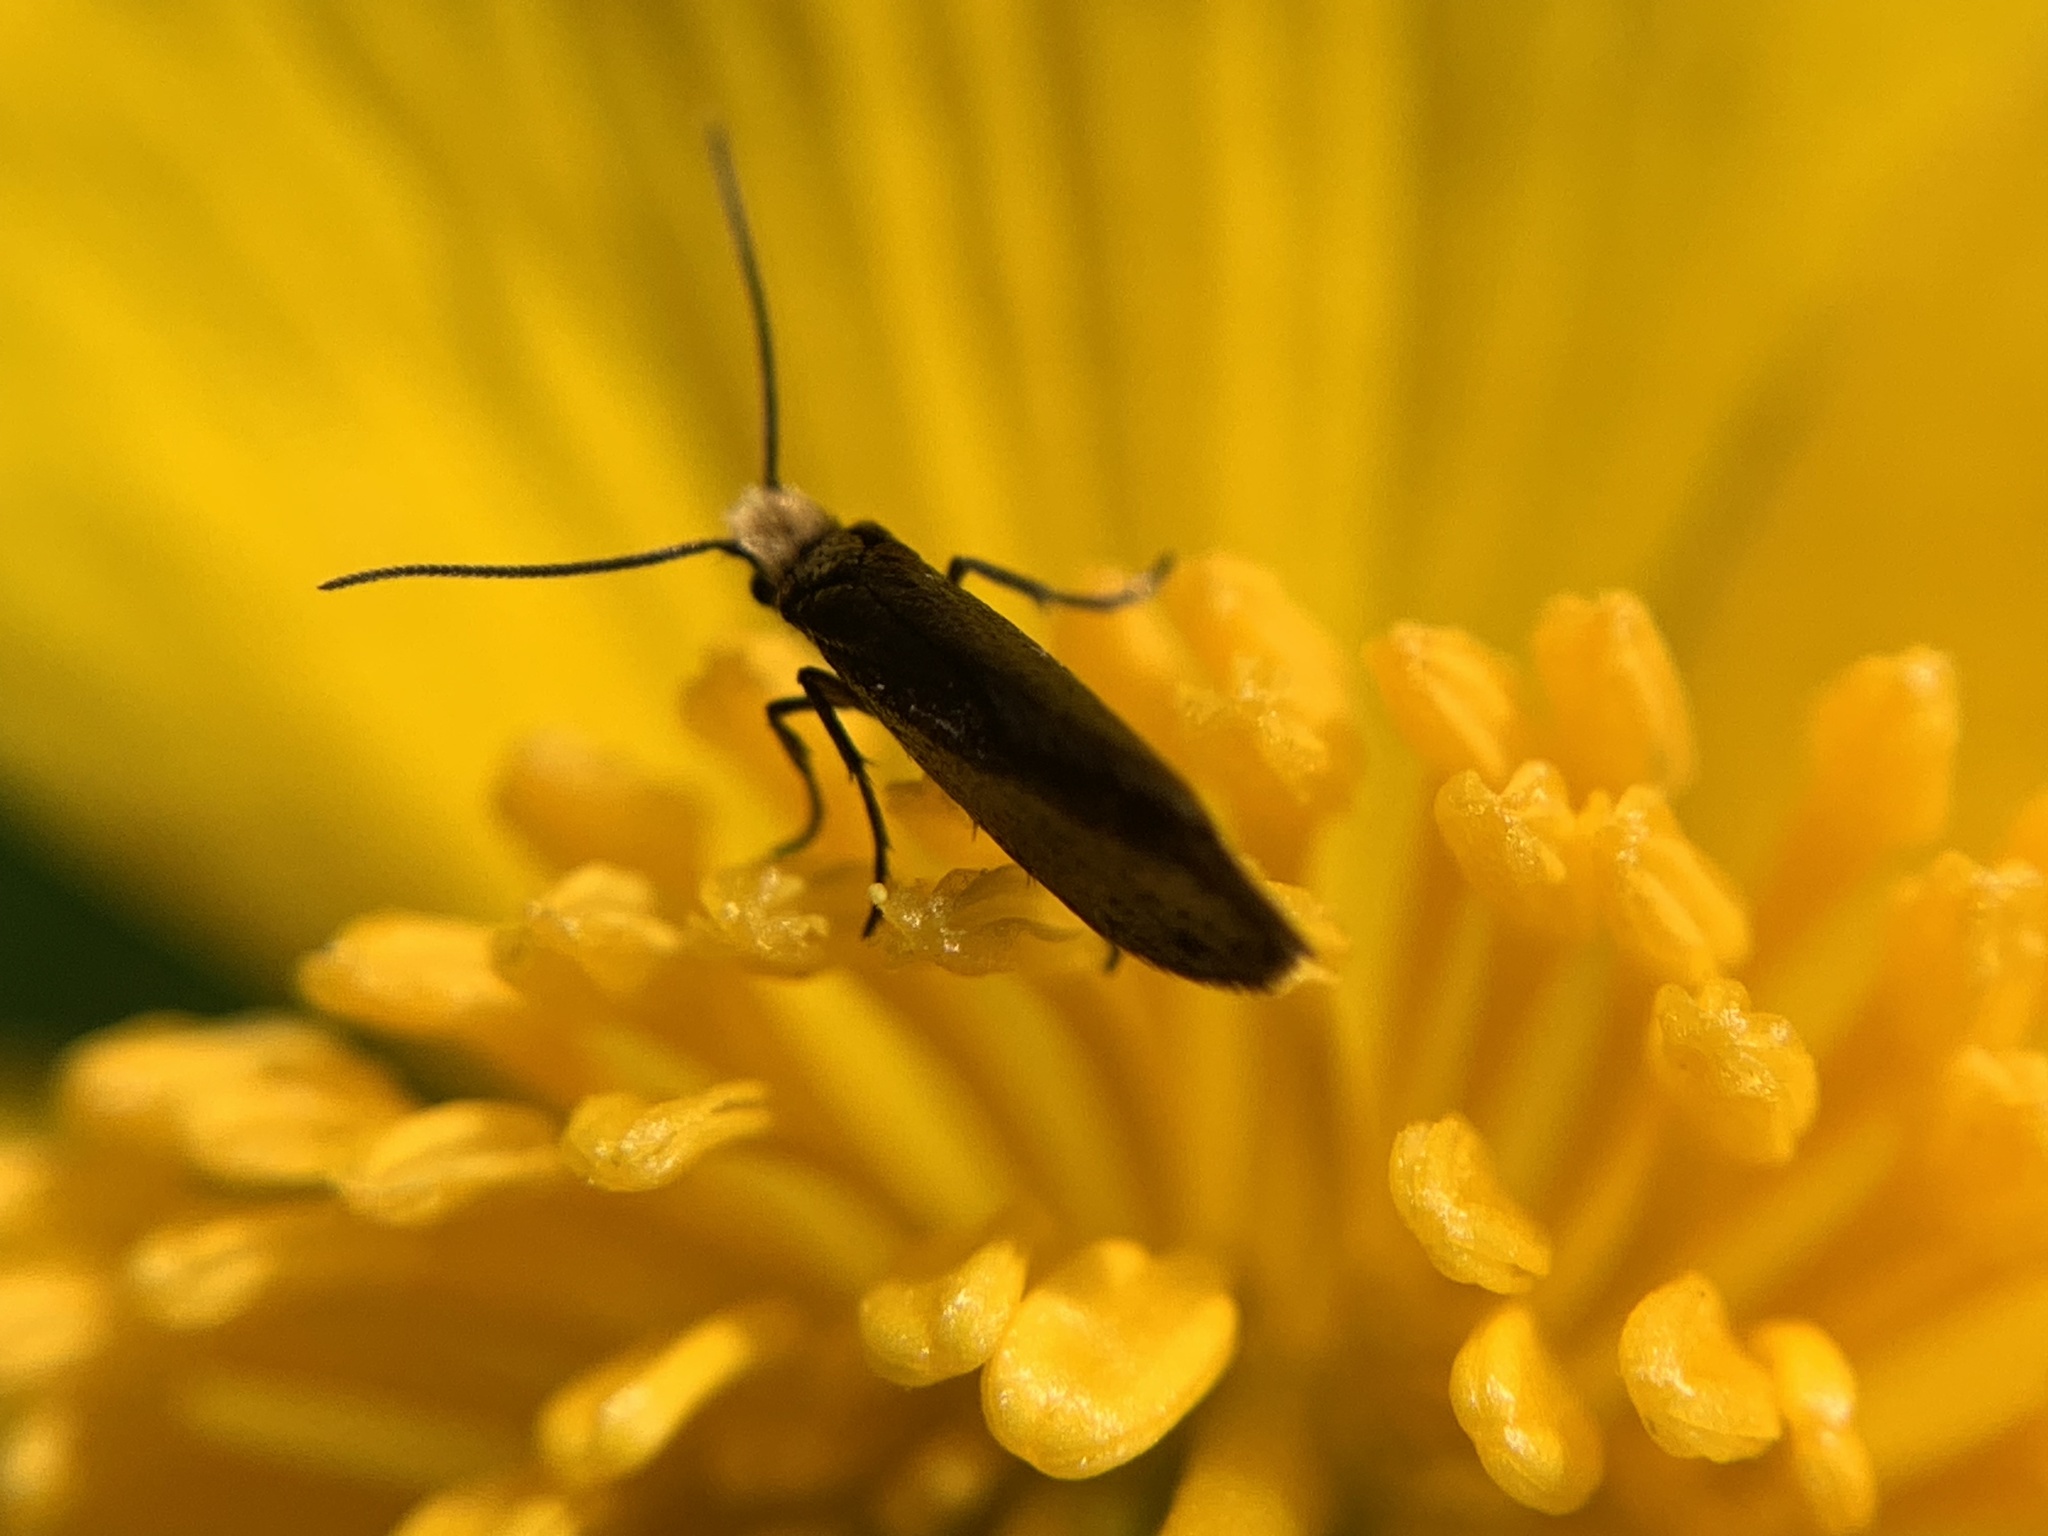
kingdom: Animalia
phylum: Arthropoda
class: Insecta
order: Lepidoptera
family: Incurvariidae
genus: Lampronia
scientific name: Lampronia fuscatella
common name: Scarce bright
